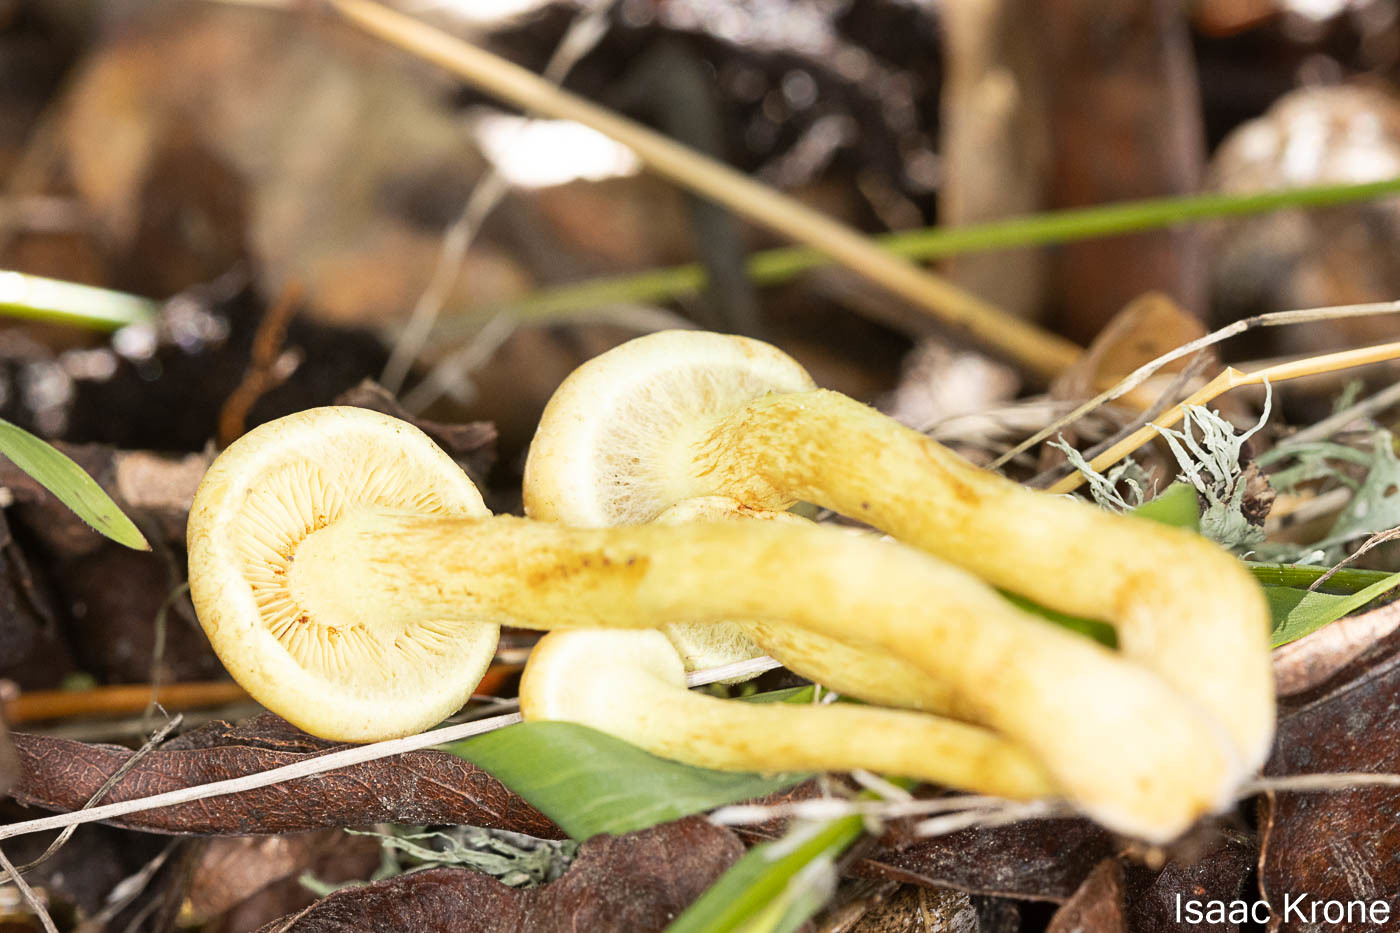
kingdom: Fungi
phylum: Basidiomycota
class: Agaricomycetes
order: Agaricales
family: Strophariaceae
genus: Hypholoma
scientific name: Hypholoma fasciculare
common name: Sulphur tuft
